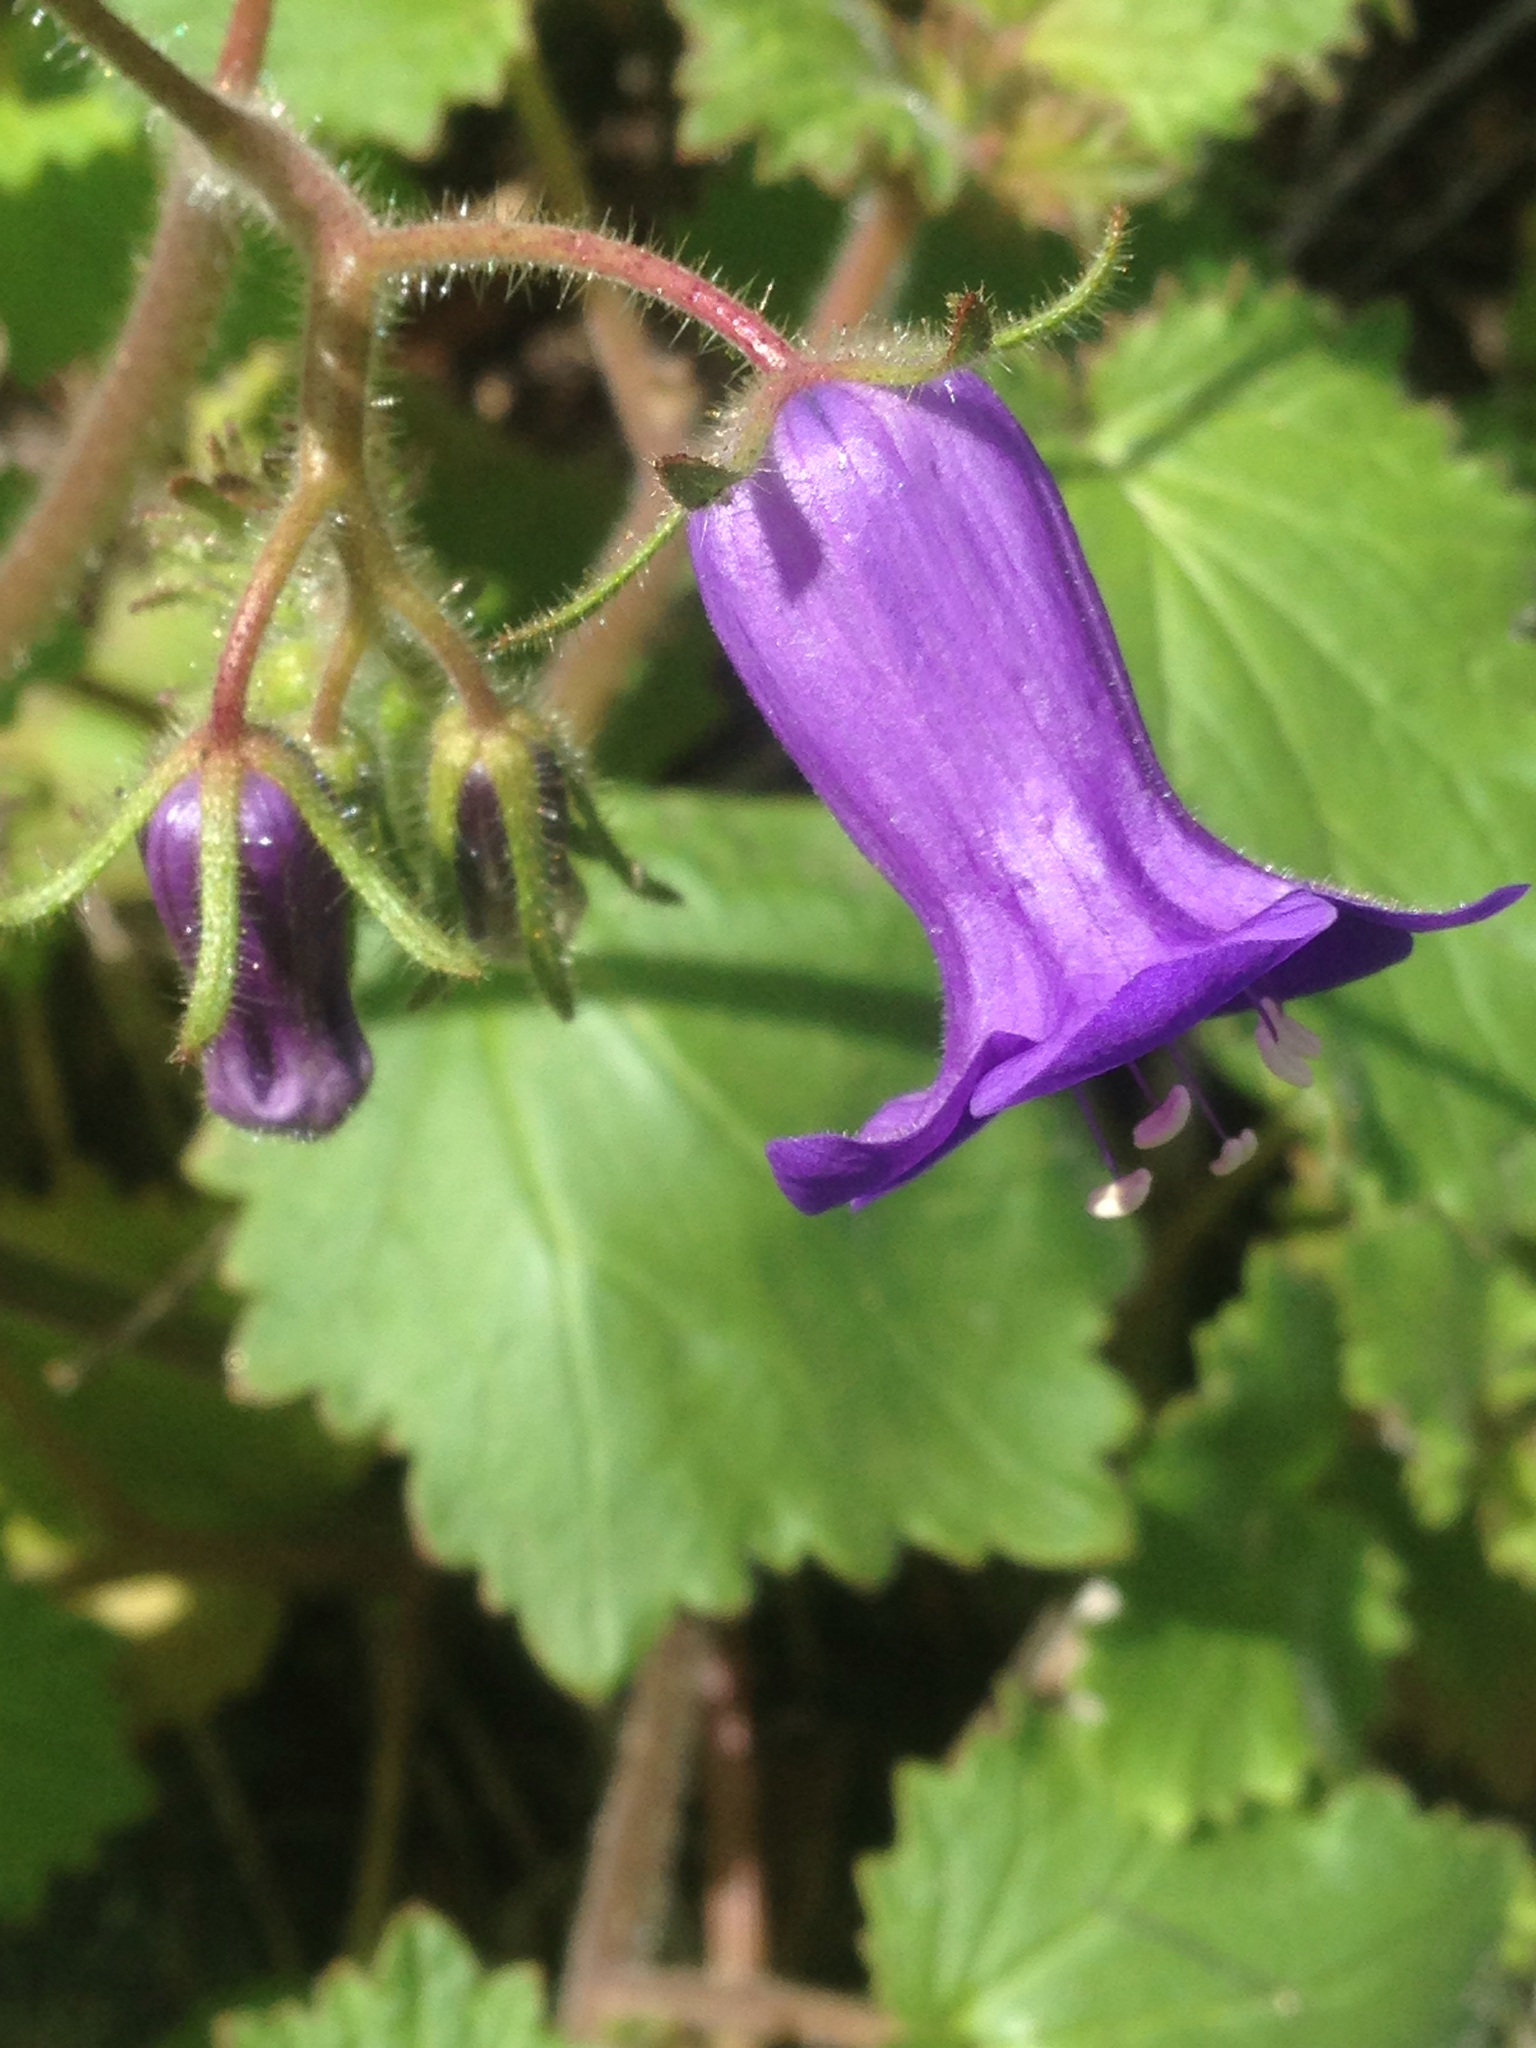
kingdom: Plantae
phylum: Tracheophyta
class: Magnoliopsida
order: Boraginales
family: Hydrophyllaceae
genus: Phacelia
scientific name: Phacelia minor
